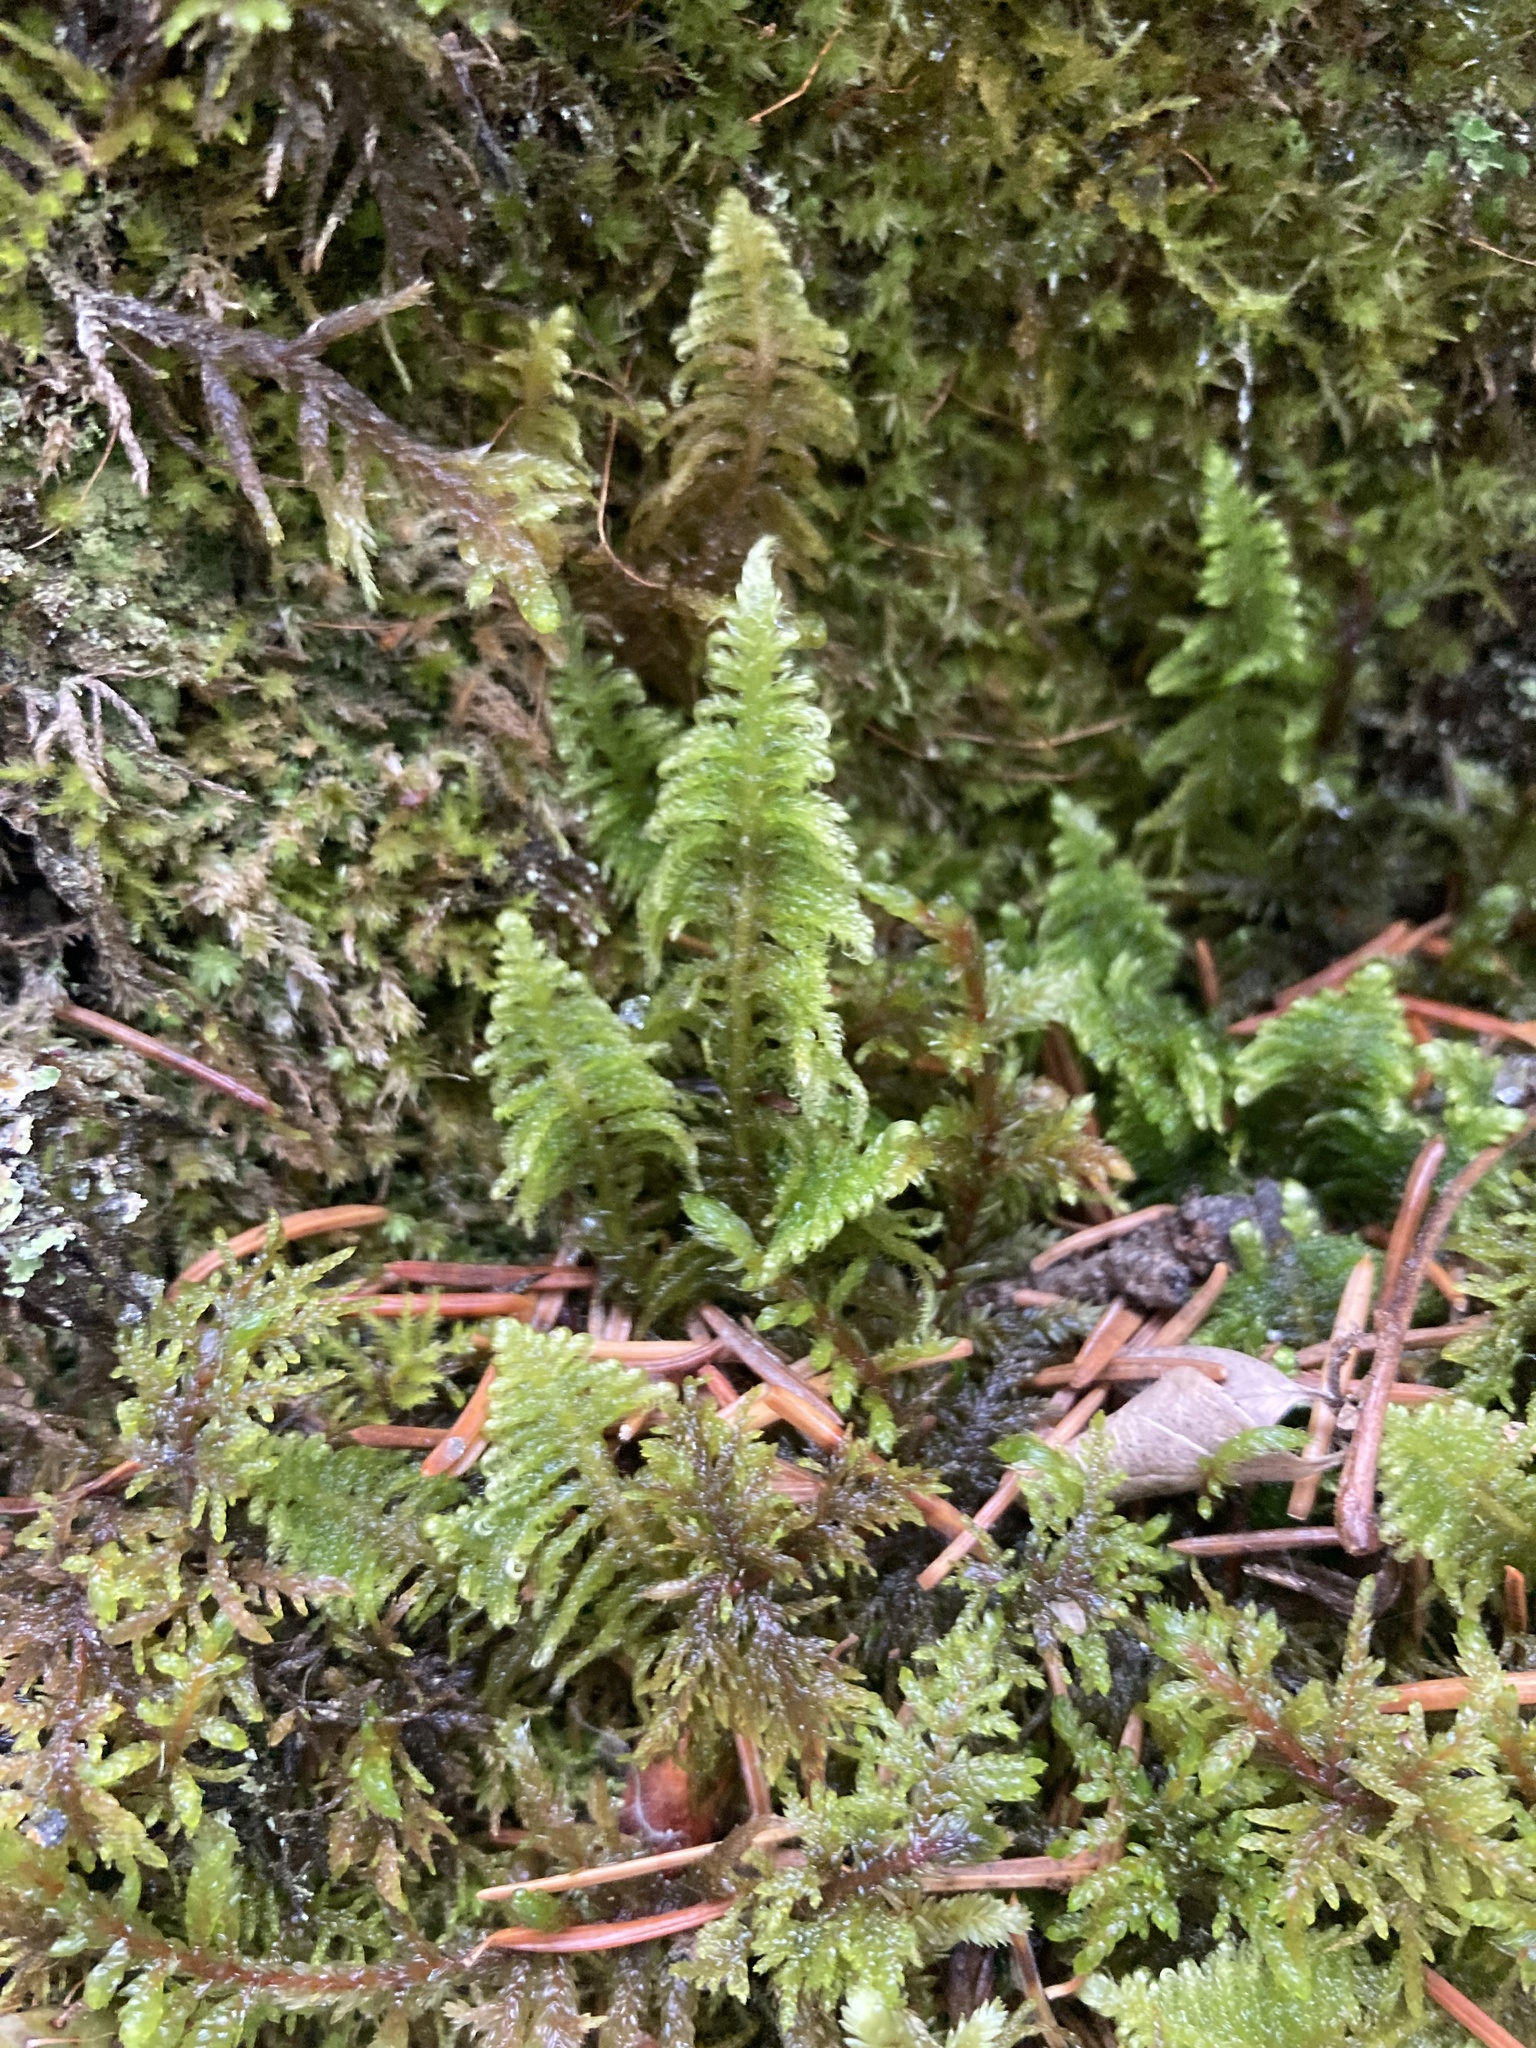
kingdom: Plantae
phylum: Bryophyta
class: Bryopsida
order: Hypnales
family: Pylaisiaceae
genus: Ptilium
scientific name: Ptilium crista-castrensis
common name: Knight's plume moss
